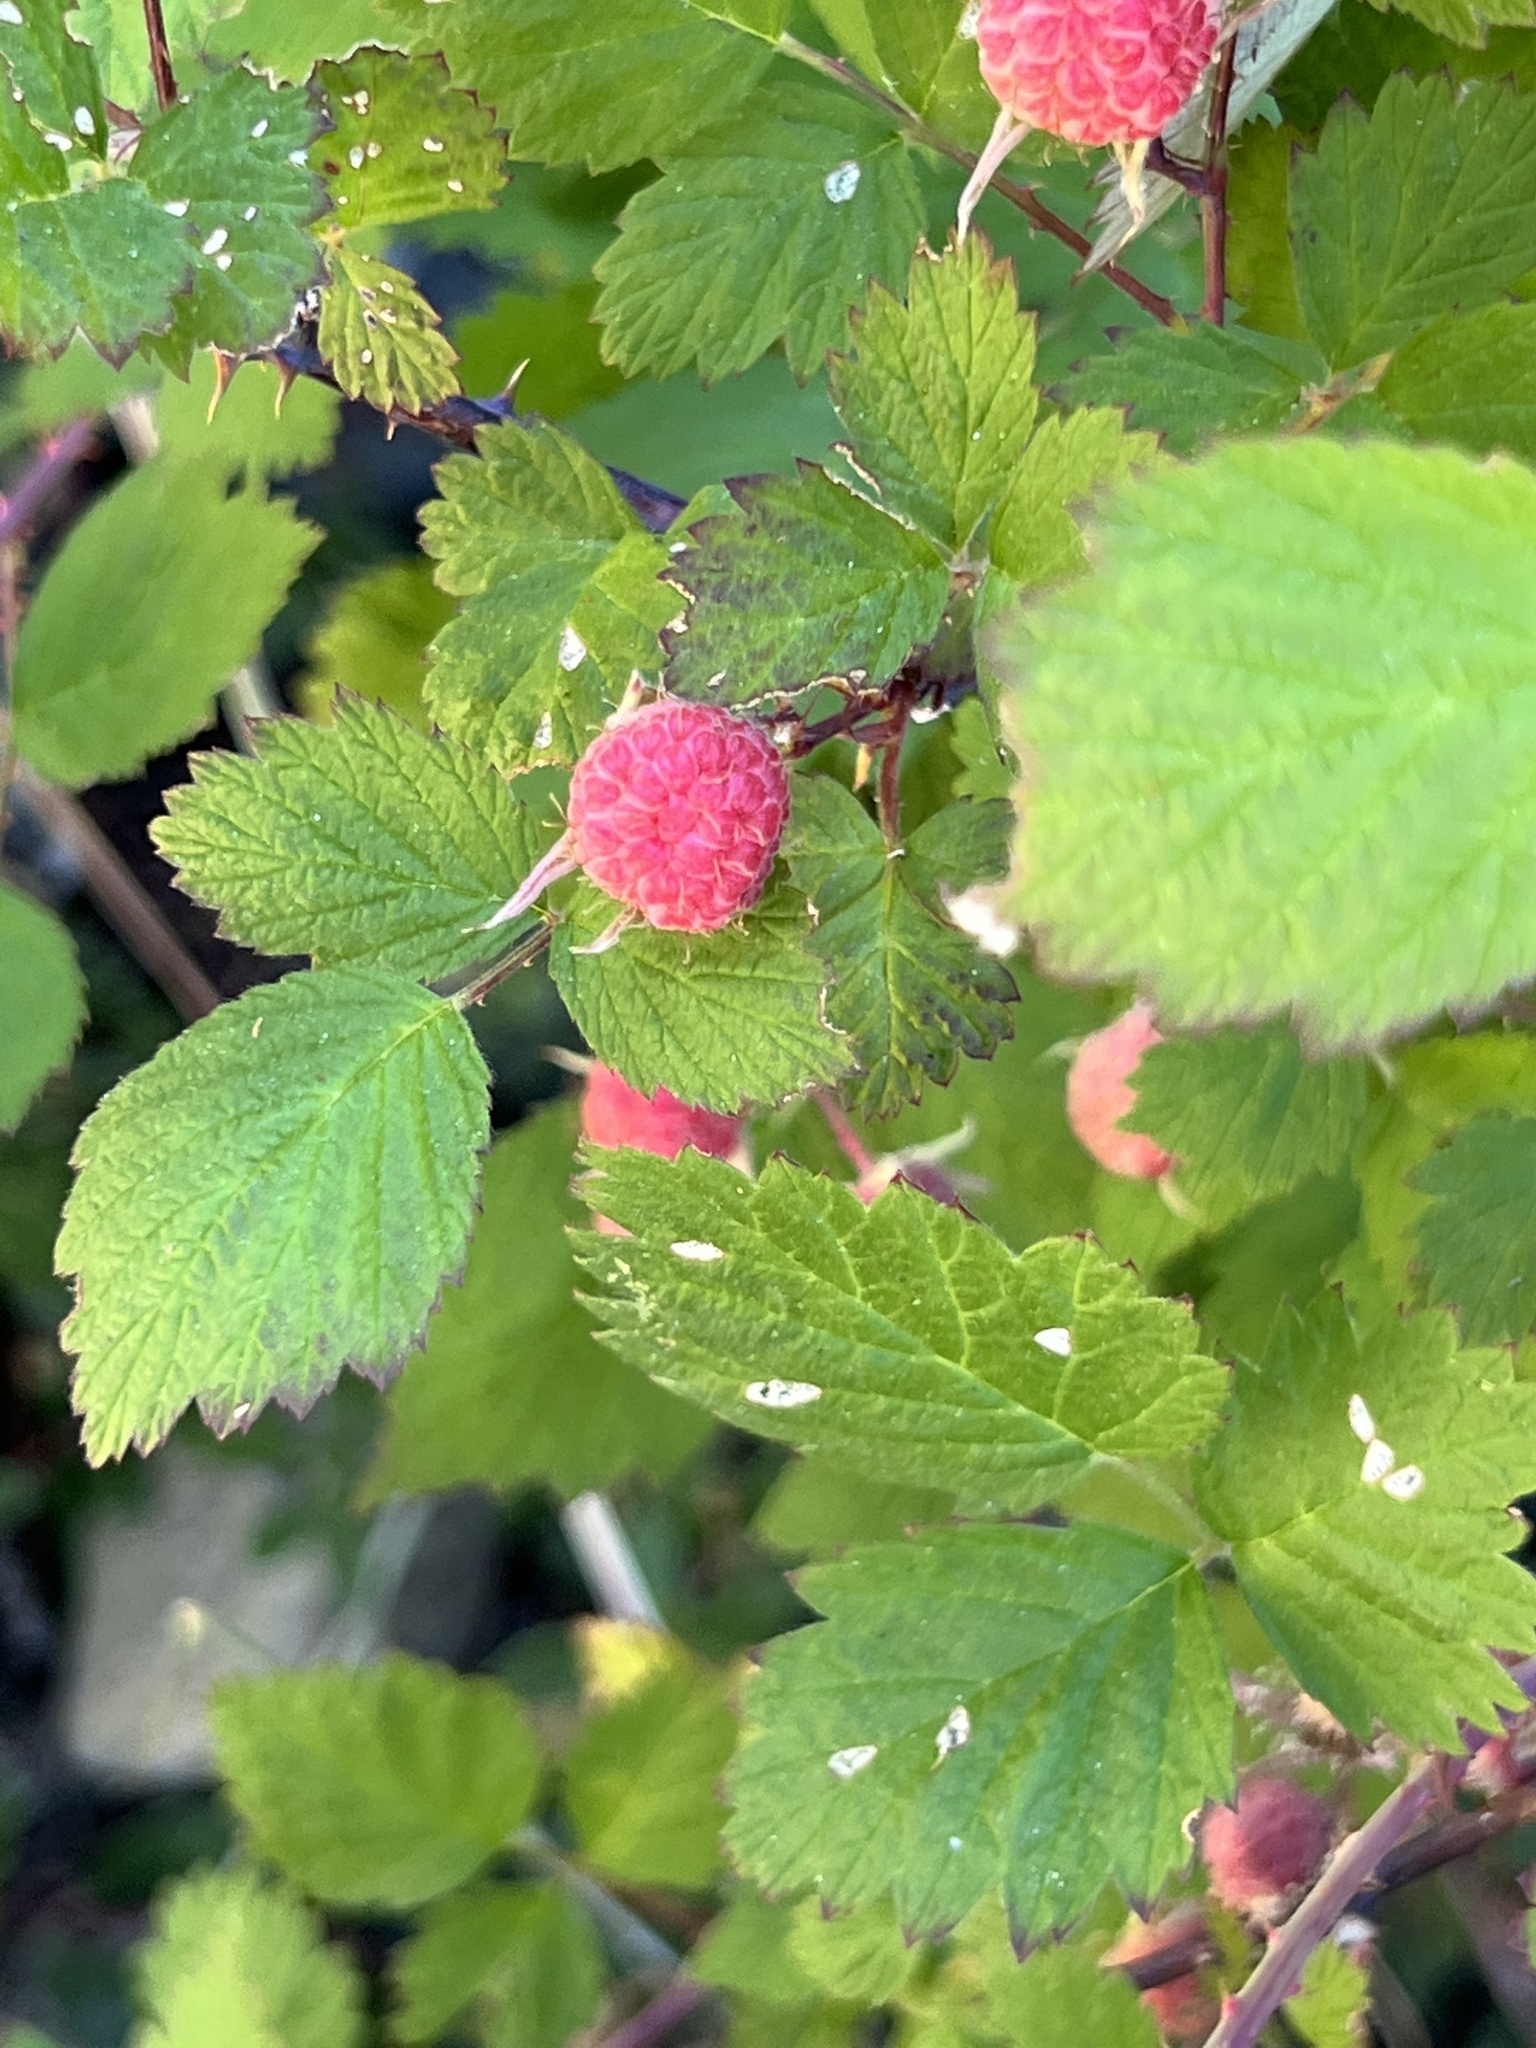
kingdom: Plantae
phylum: Tracheophyta
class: Magnoliopsida
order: Rosales
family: Rosaceae
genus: Rubus
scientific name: Rubus leucodermis
